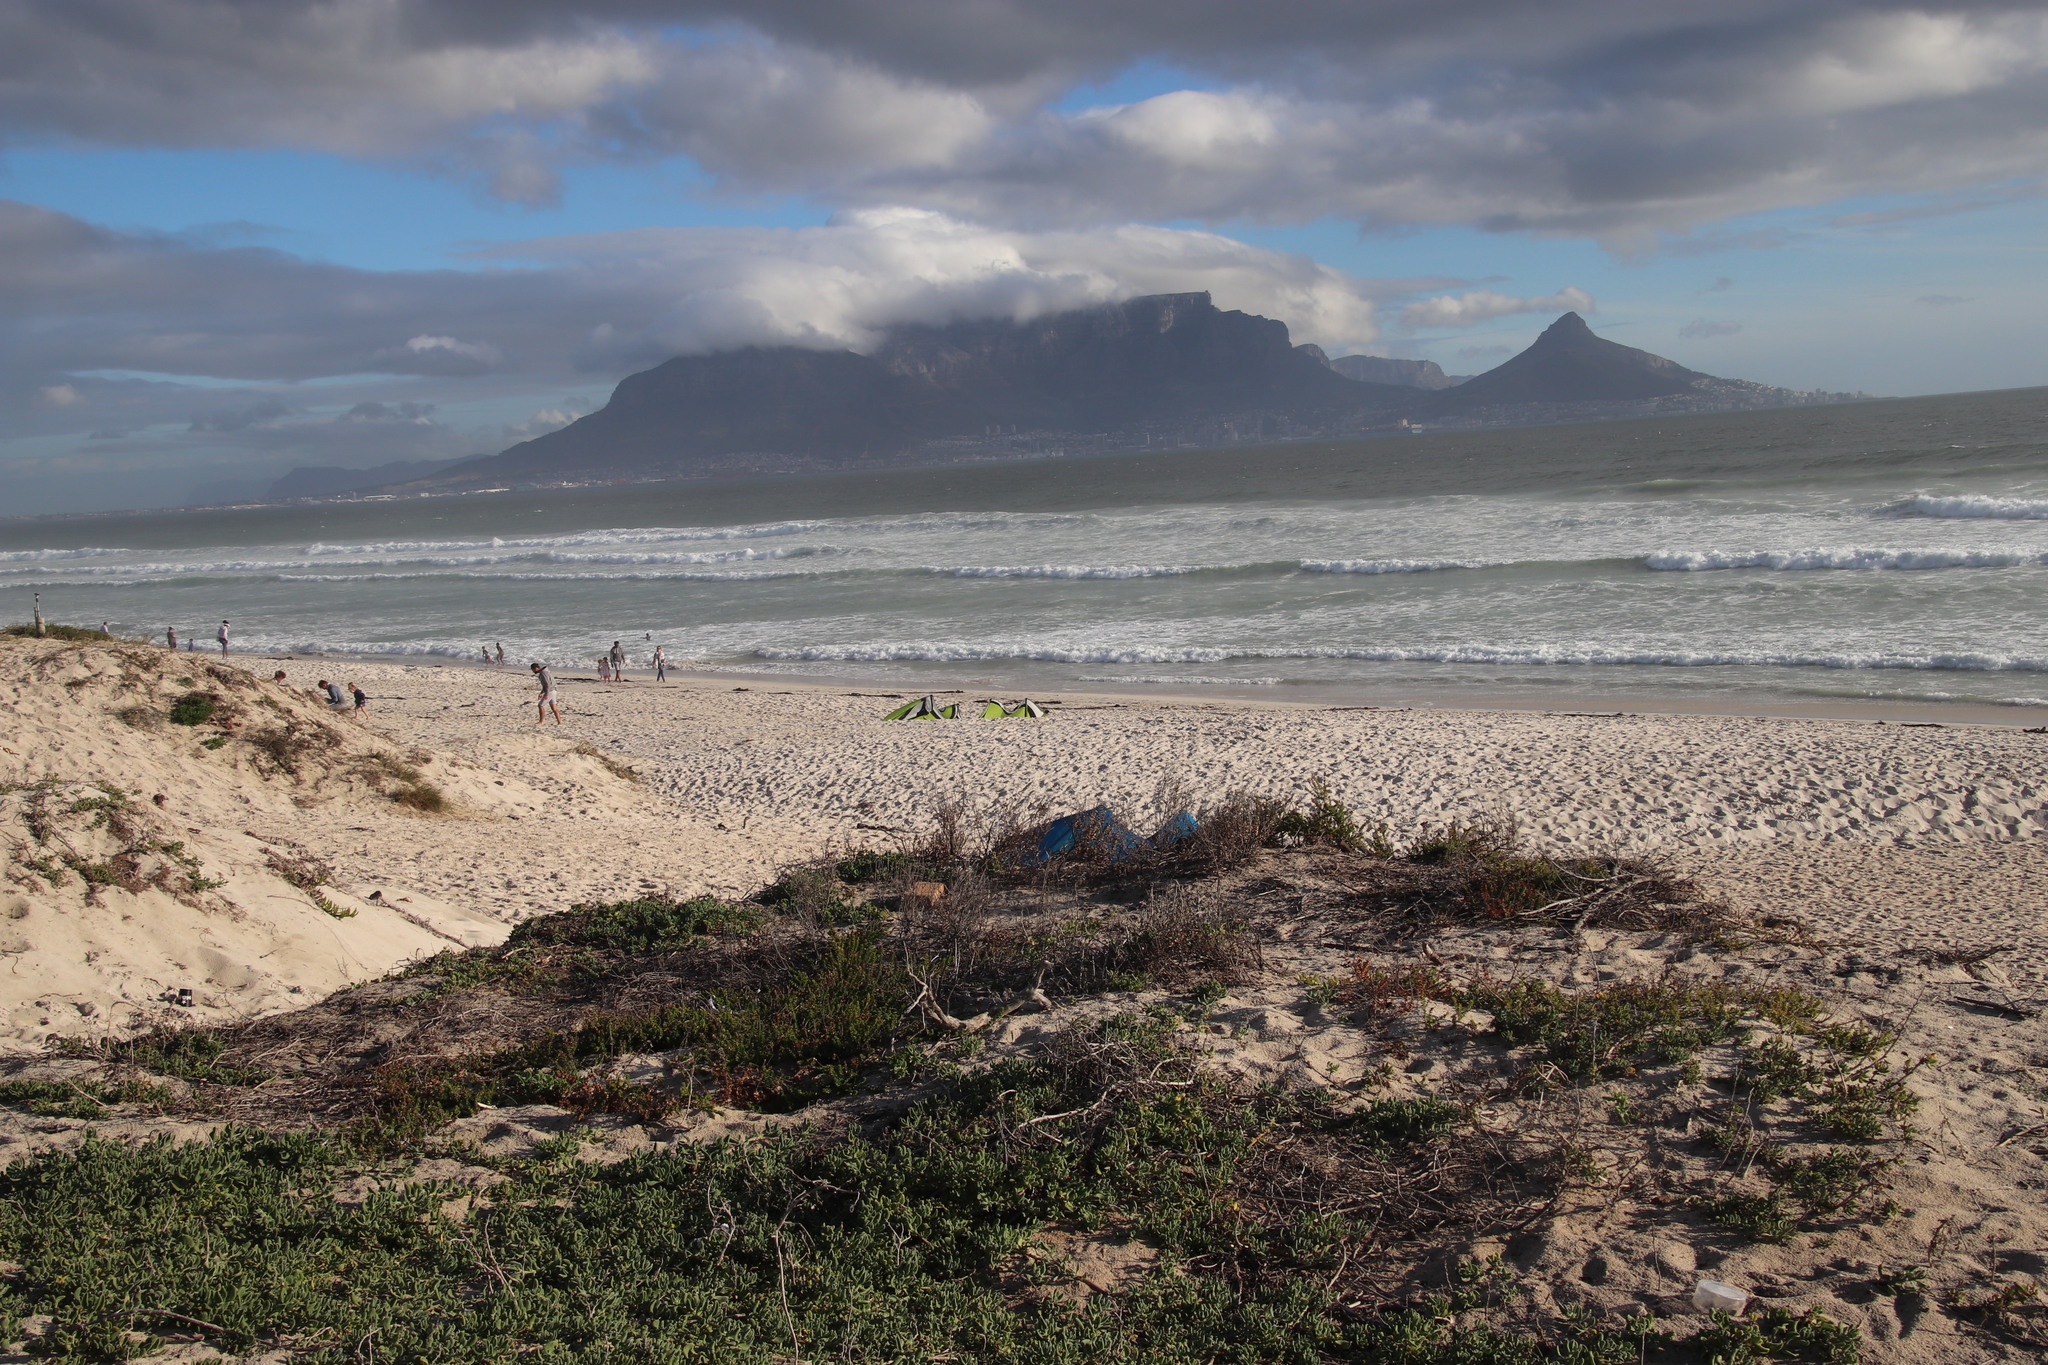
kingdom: Plantae
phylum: Tracheophyta
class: Magnoliopsida
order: Caryophyllales
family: Aizoaceae
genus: Tetragonia
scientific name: Tetragonia decumbens
